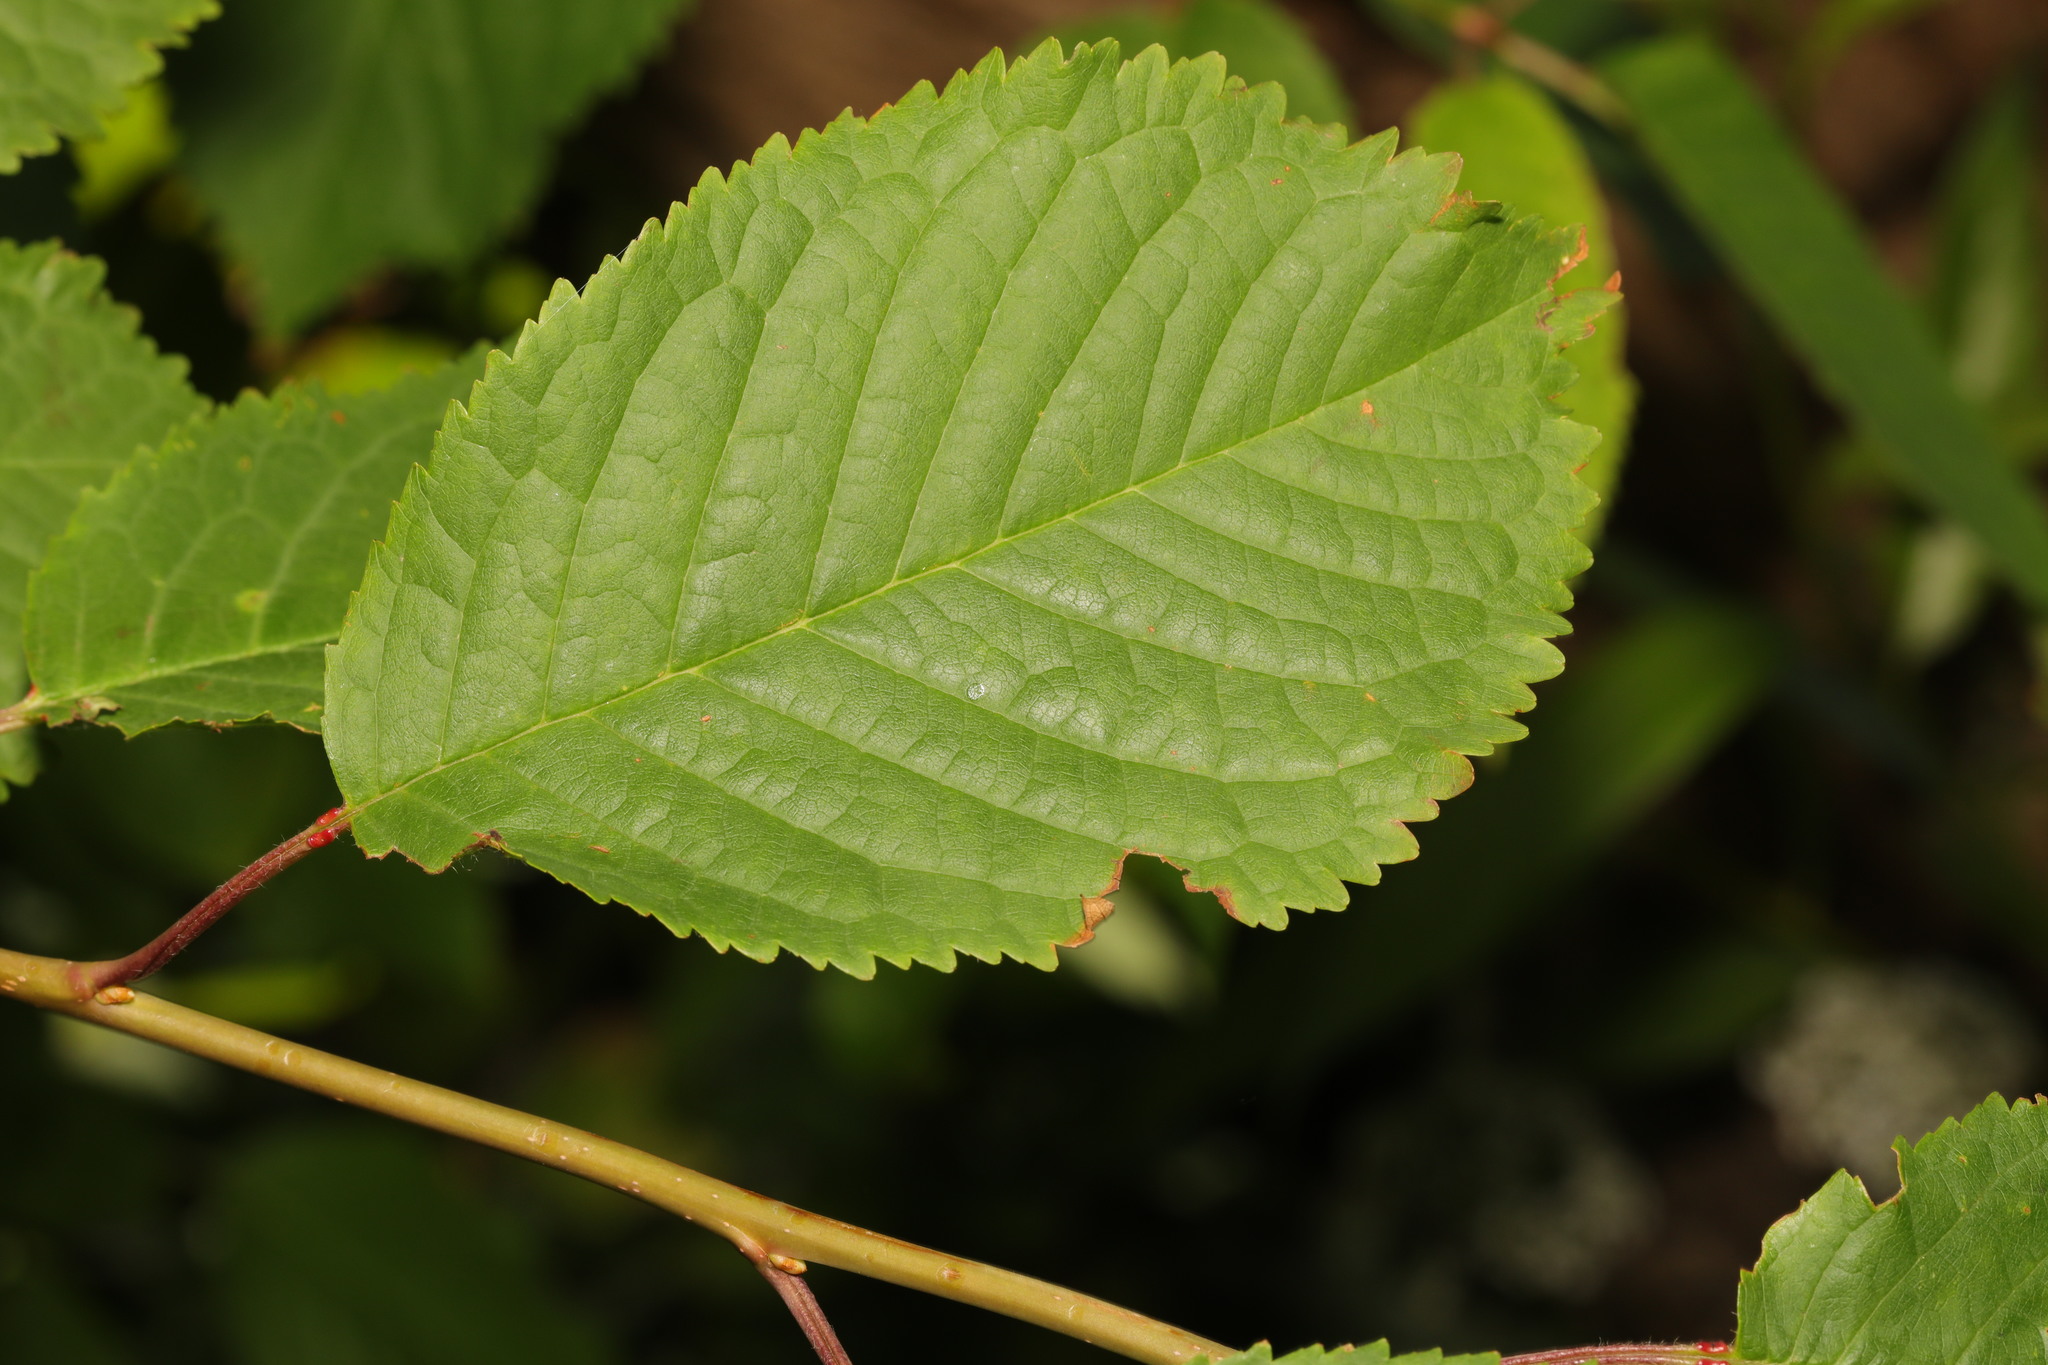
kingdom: Plantae
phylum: Tracheophyta
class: Magnoliopsida
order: Rosales
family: Rosaceae
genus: Prunus
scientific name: Prunus avium
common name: Sweet cherry
